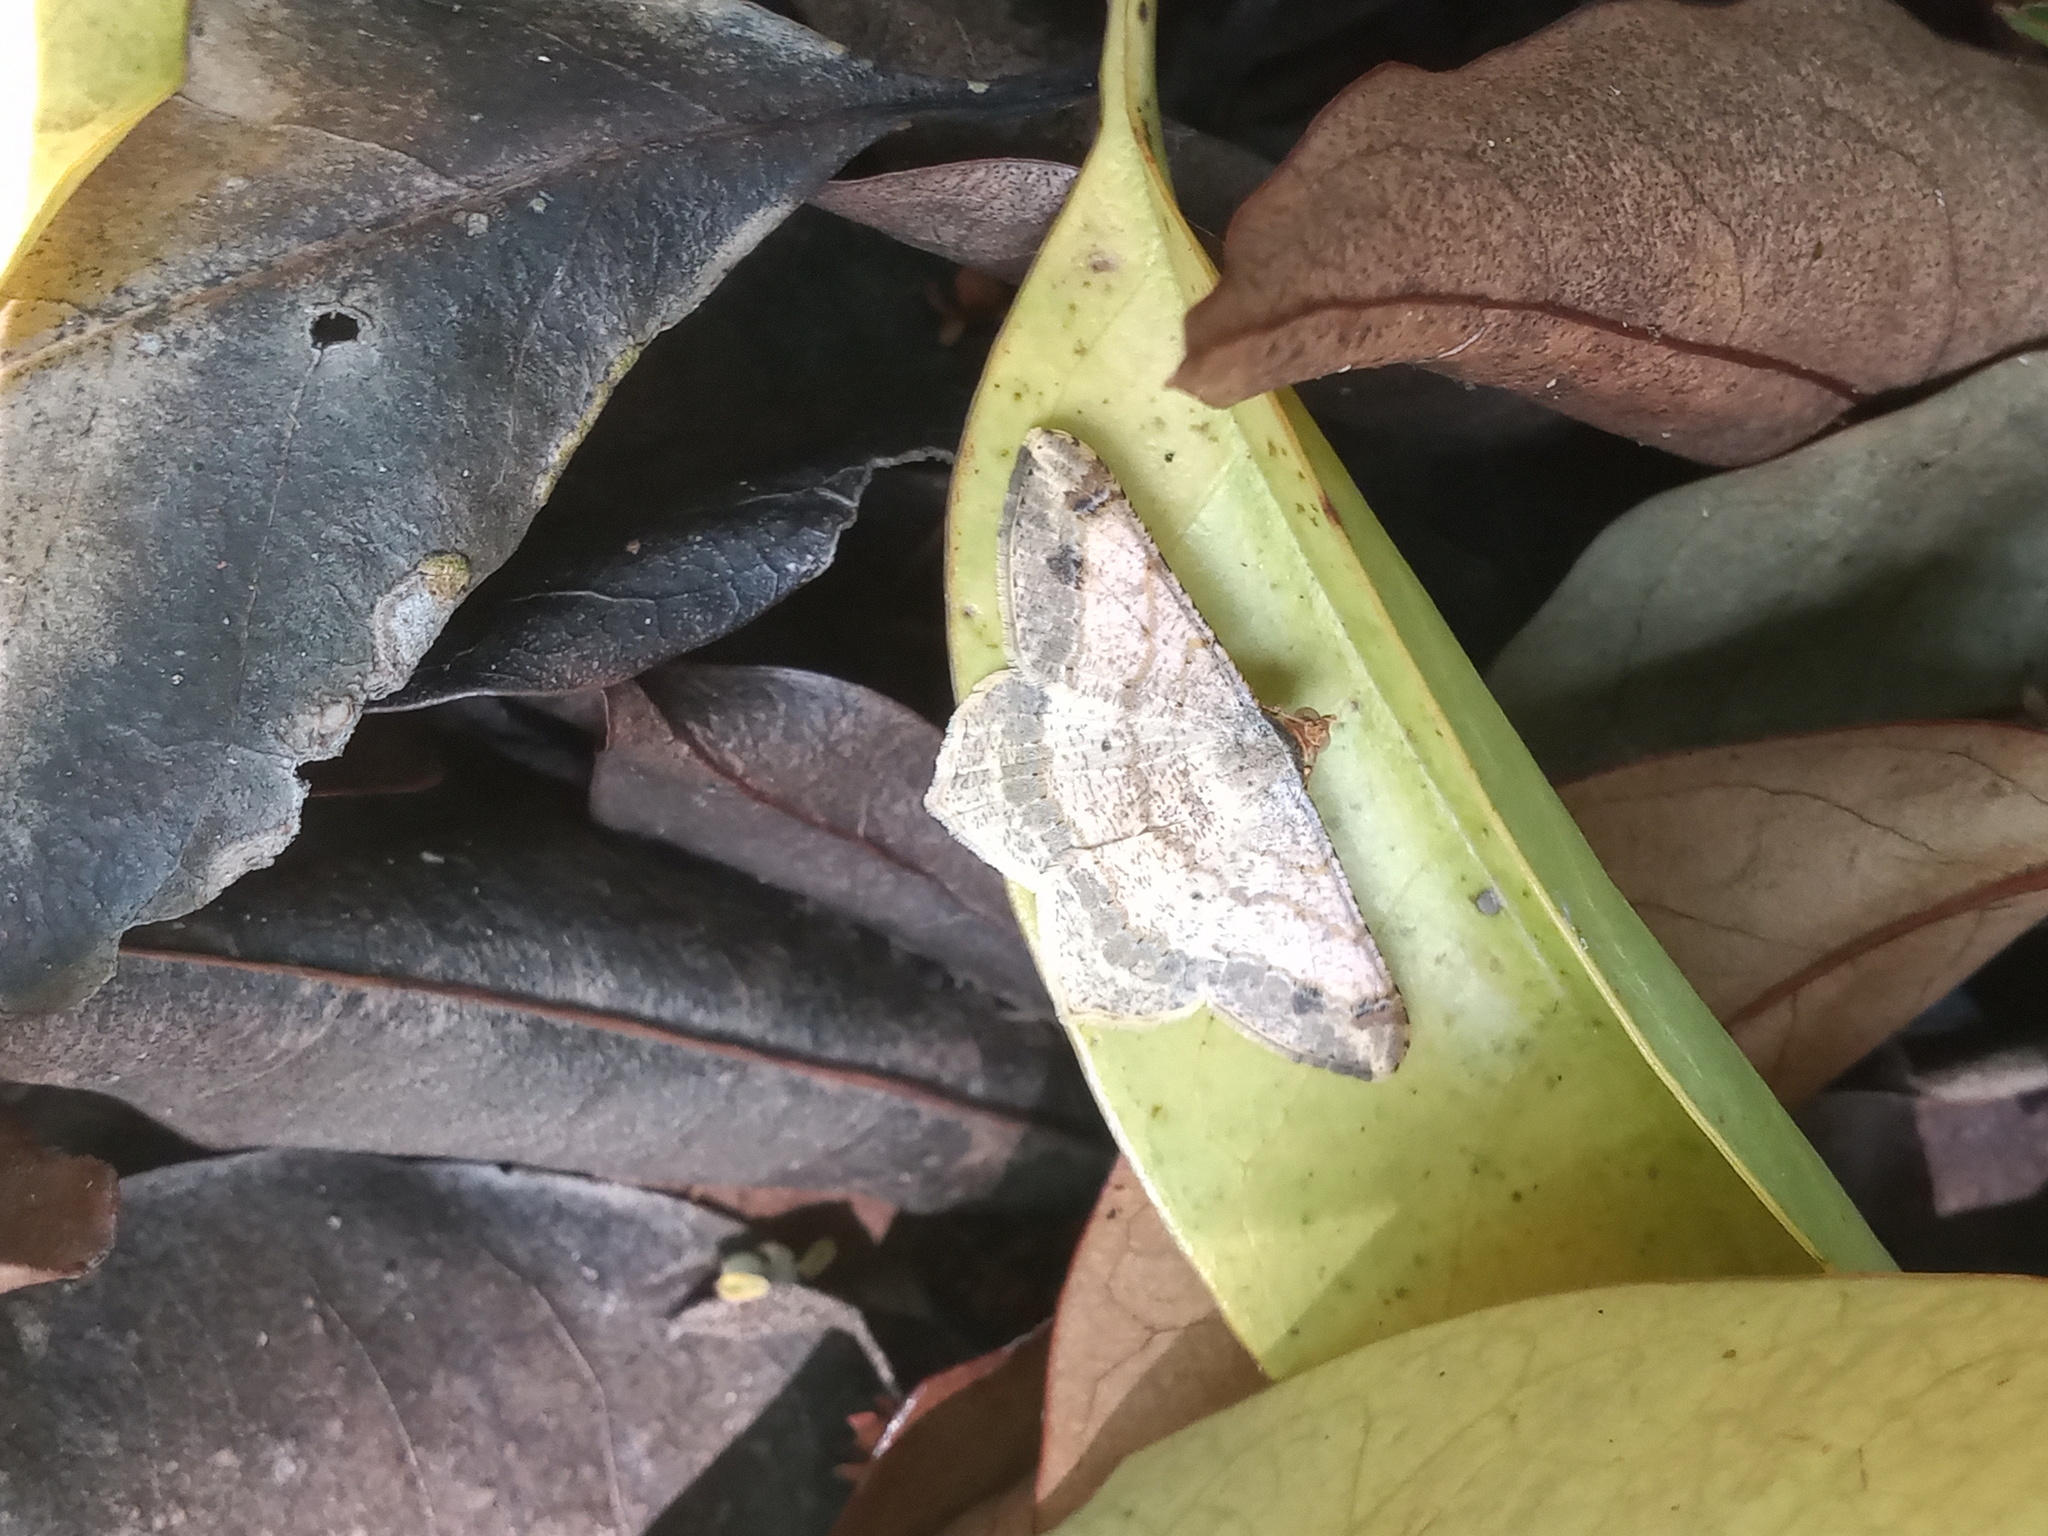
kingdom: Animalia
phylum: Arthropoda
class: Insecta
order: Lepidoptera
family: Geometridae
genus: Macaria
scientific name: Macaria abydata
